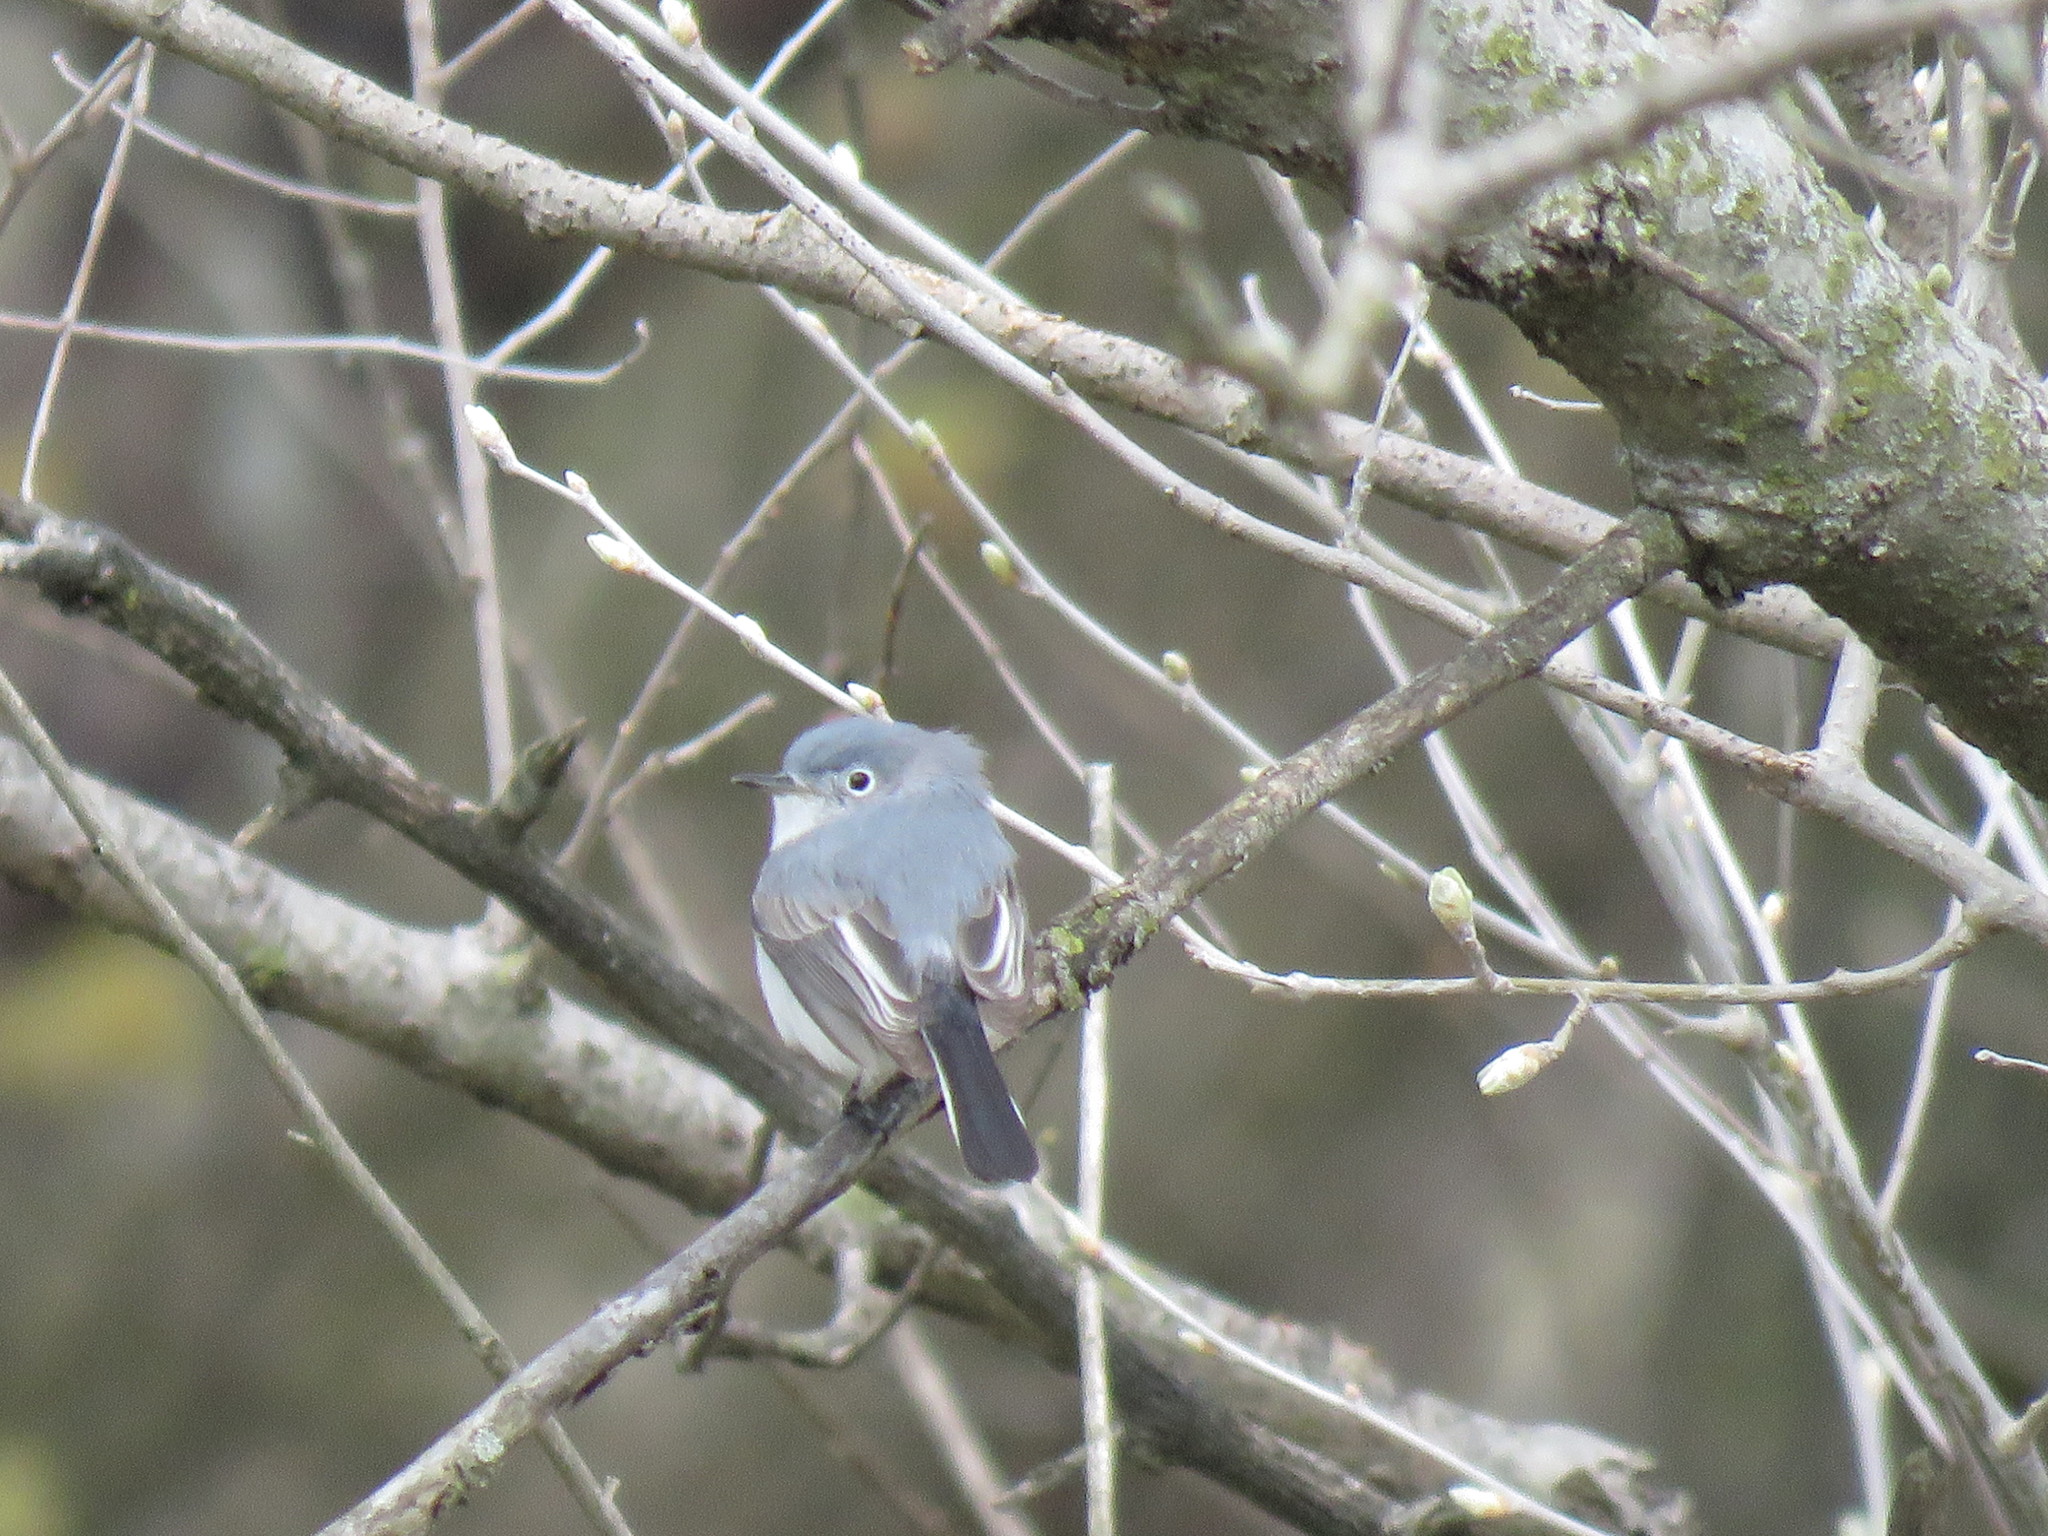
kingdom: Animalia
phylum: Chordata
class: Aves
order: Passeriformes
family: Polioptilidae
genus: Polioptila
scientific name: Polioptila caerulea
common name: Blue-gray gnatcatcher
